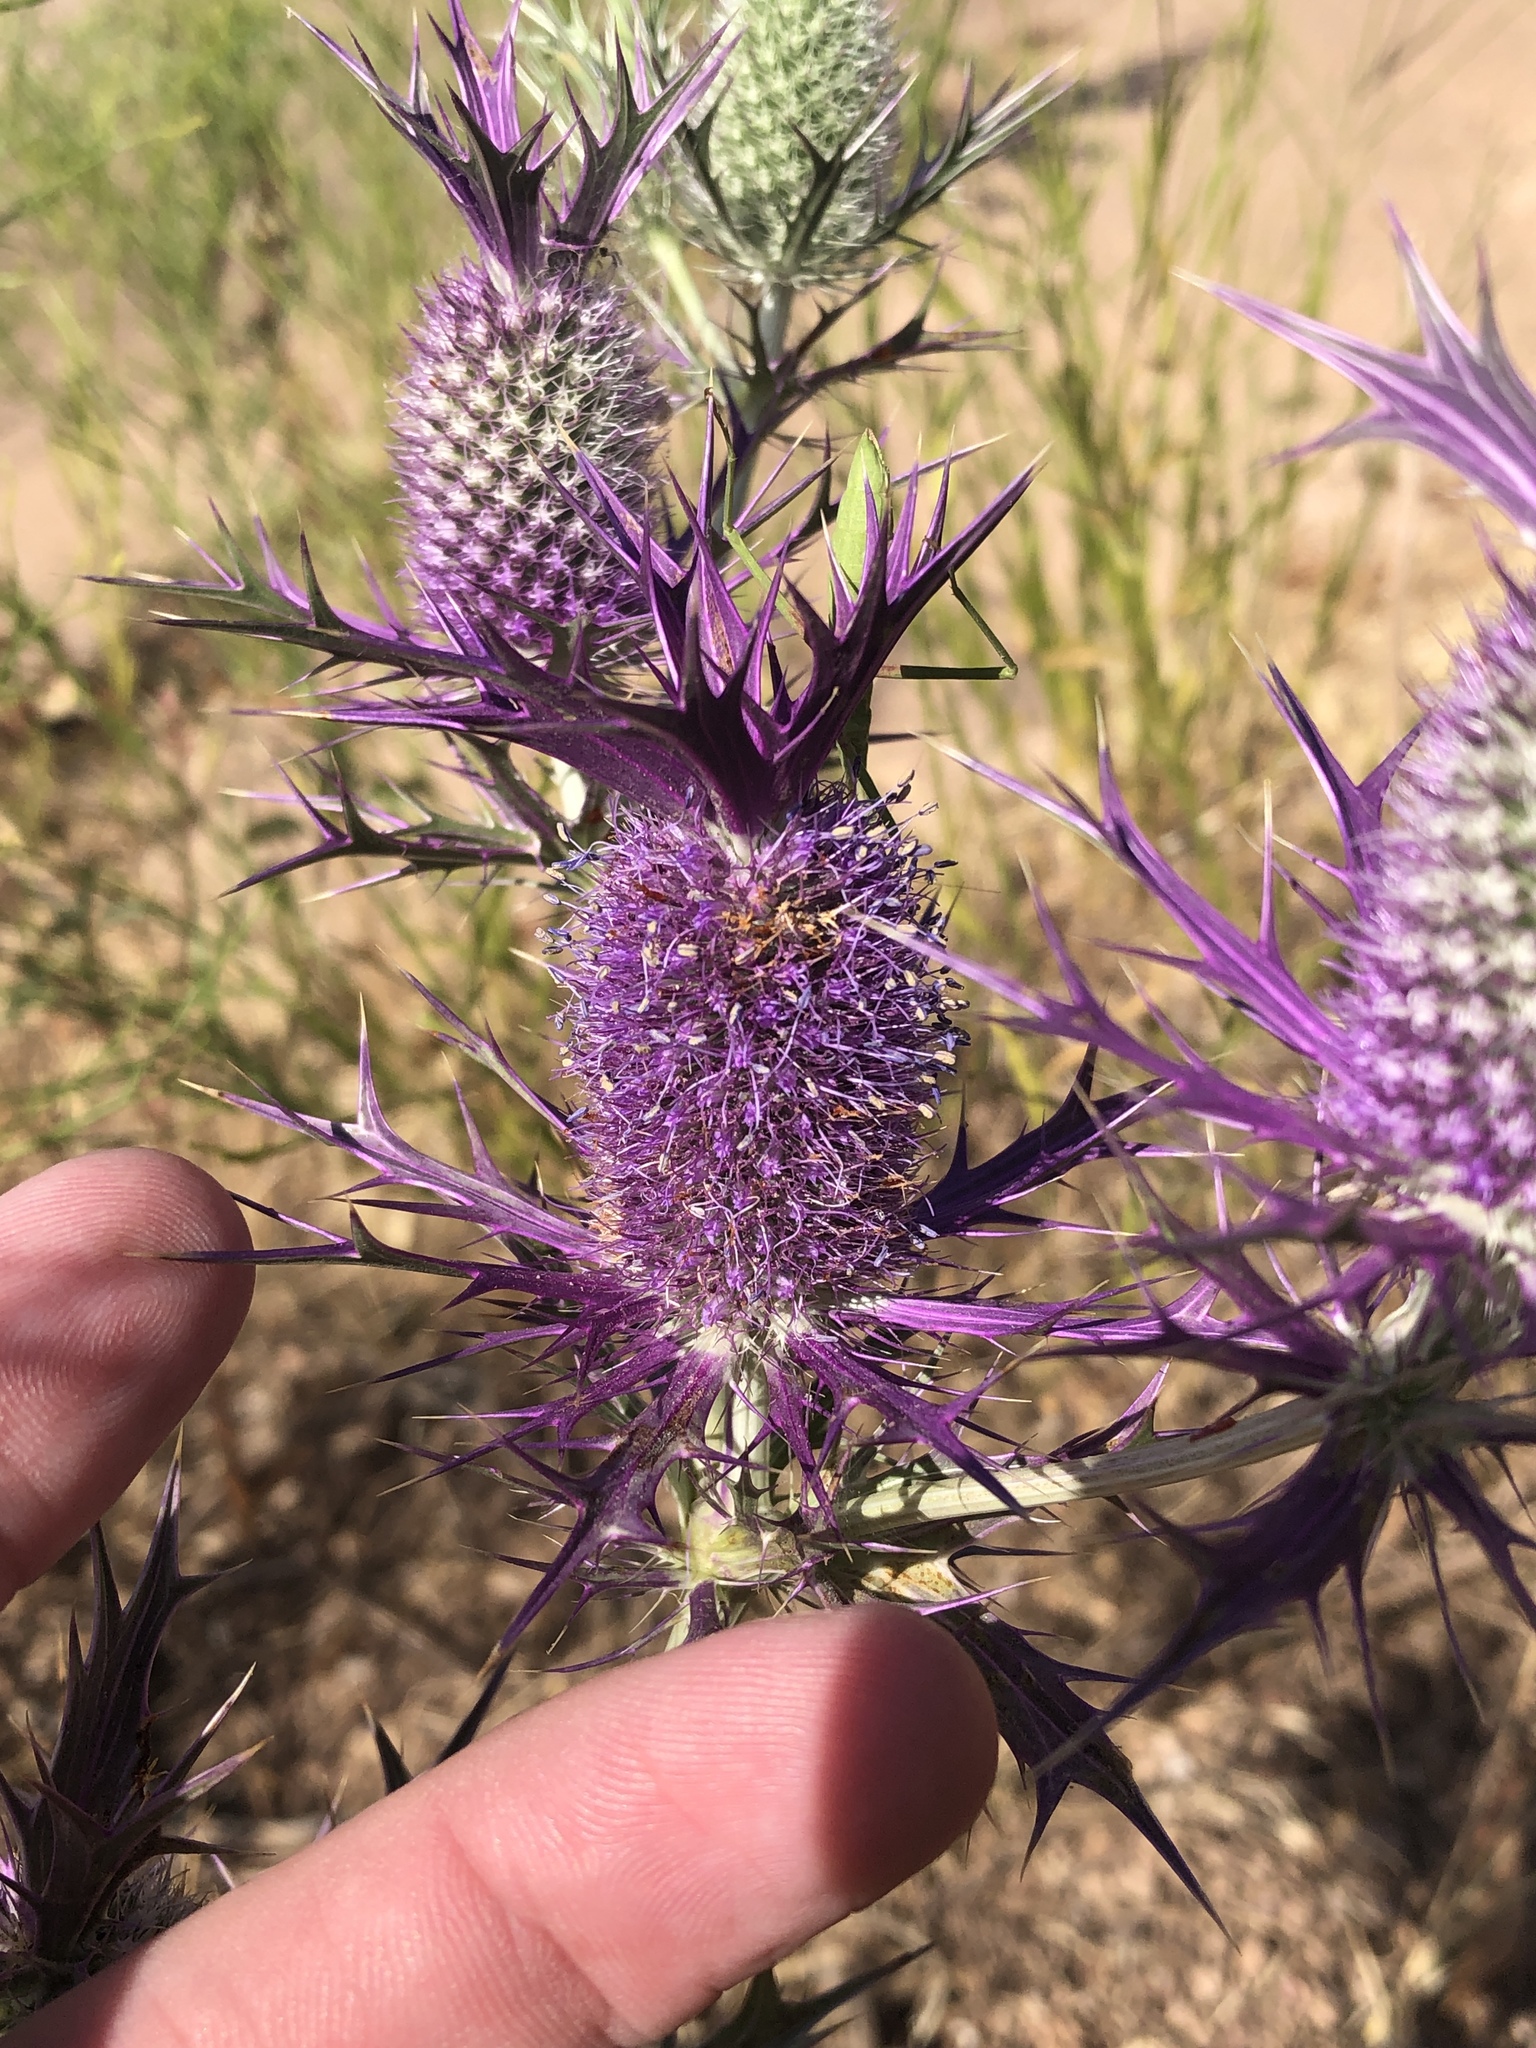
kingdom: Plantae
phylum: Tracheophyta
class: Magnoliopsida
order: Apiales
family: Apiaceae
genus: Eryngium
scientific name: Eryngium leavenworthii
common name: Leavenworth's eryngo
